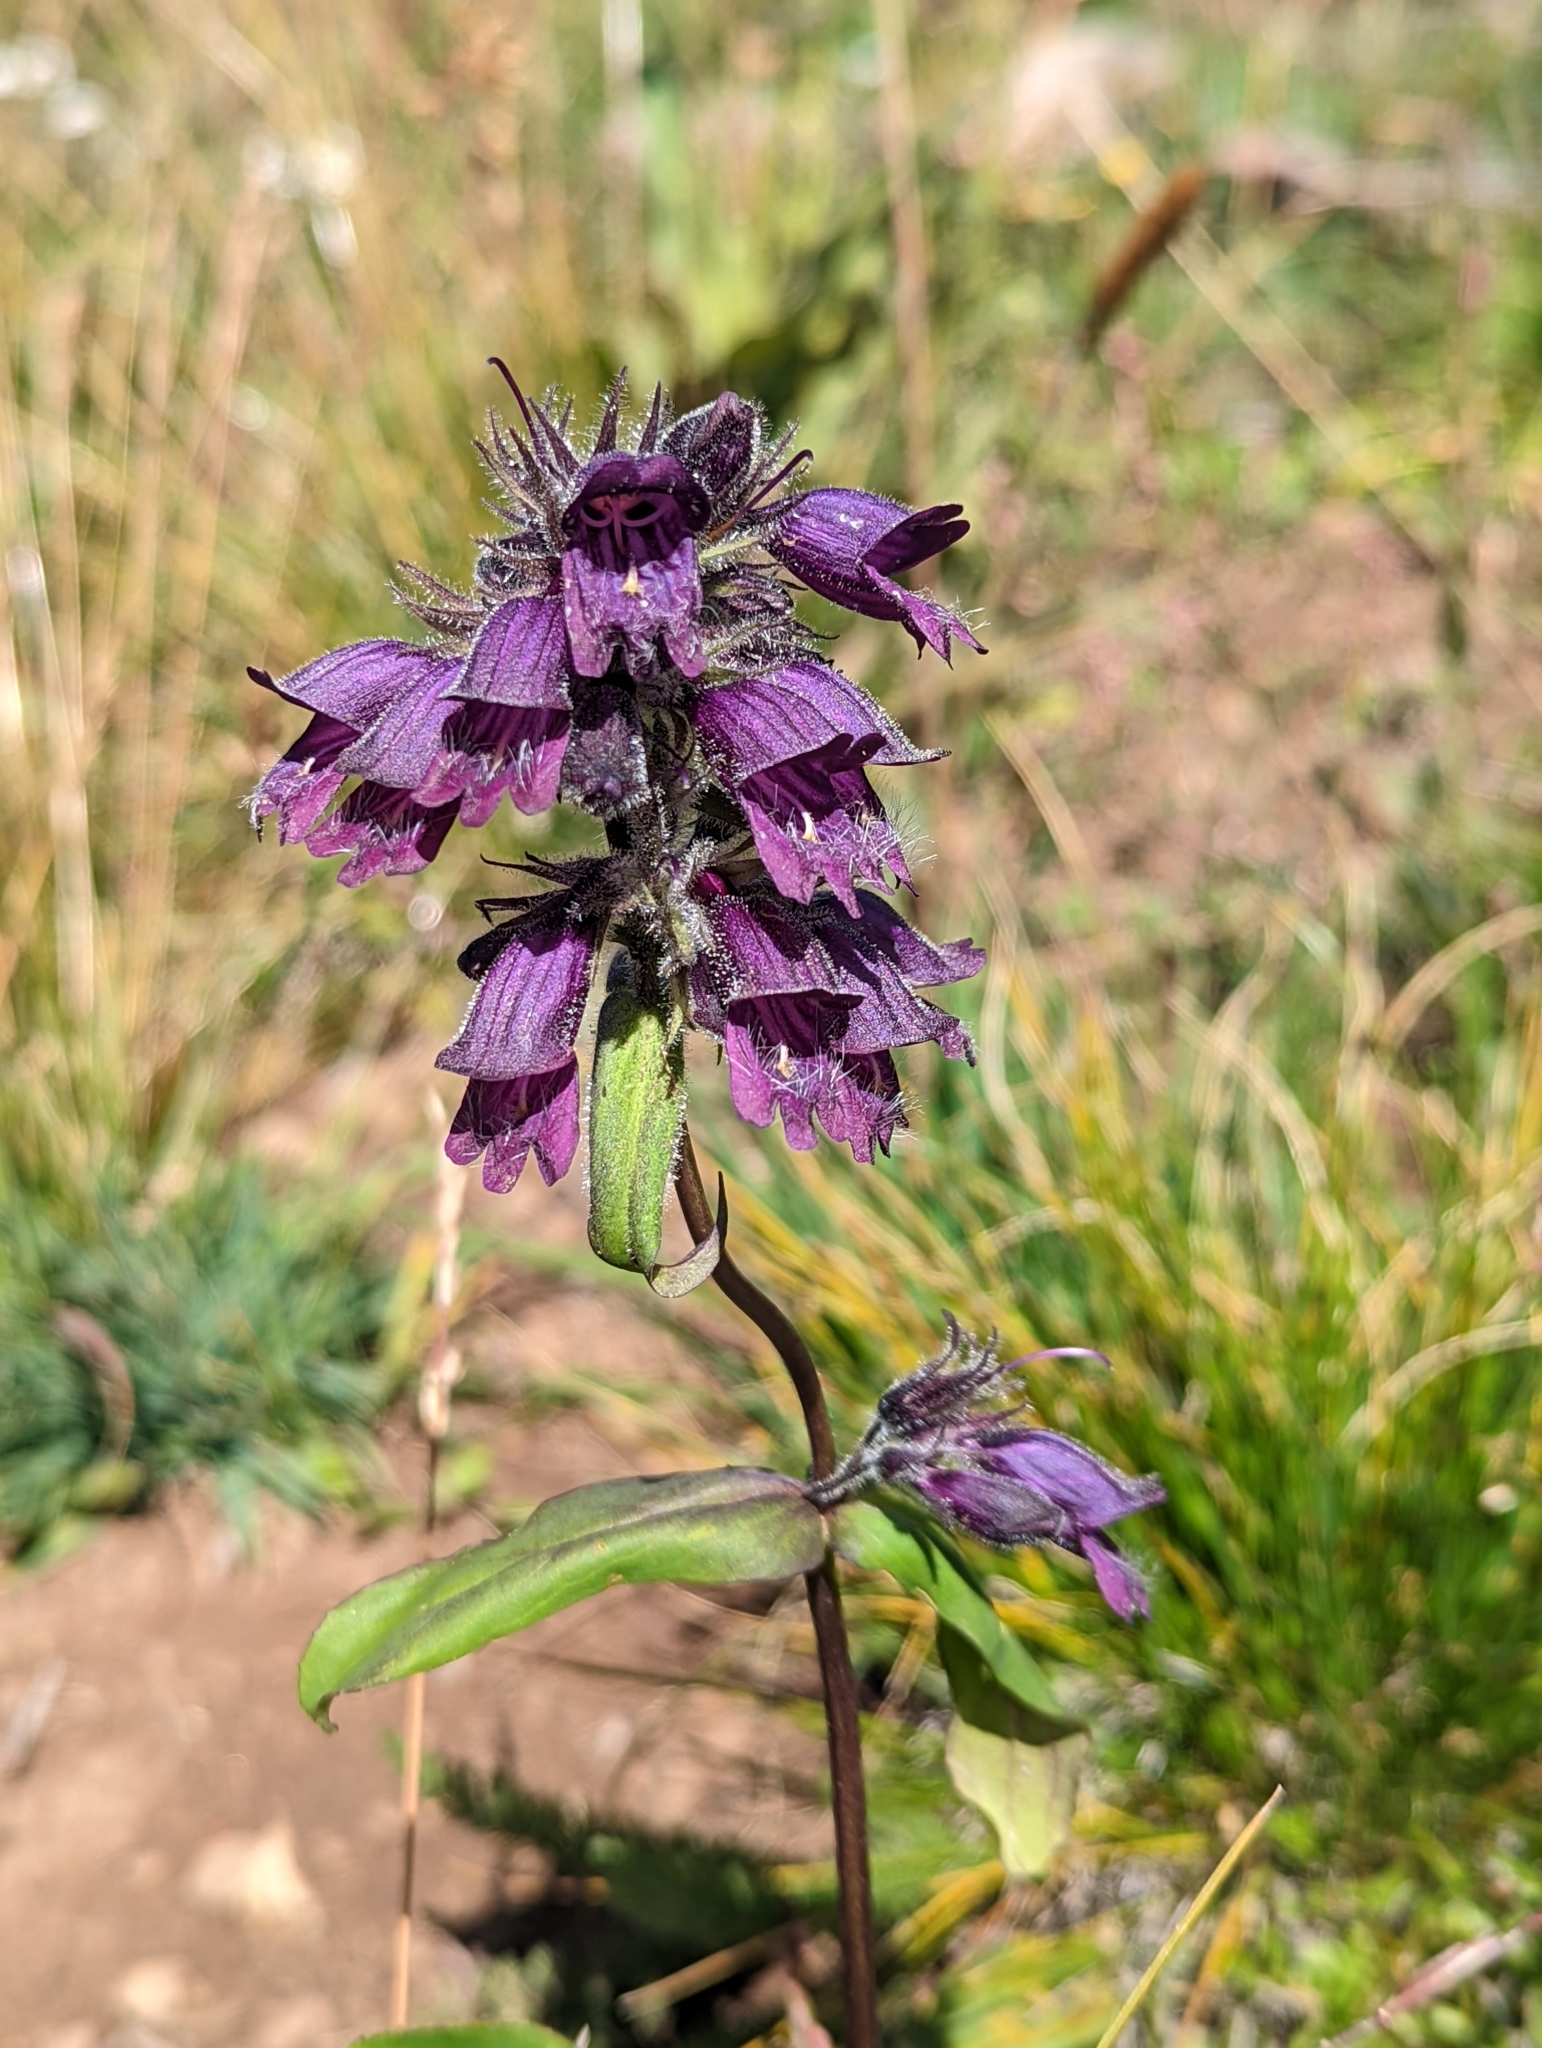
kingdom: Plantae
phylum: Tracheophyta
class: Magnoliopsida
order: Lamiales
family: Plantaginaceae
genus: Penstemon
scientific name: Penstemon whippleanus
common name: Whipple's penstemon
